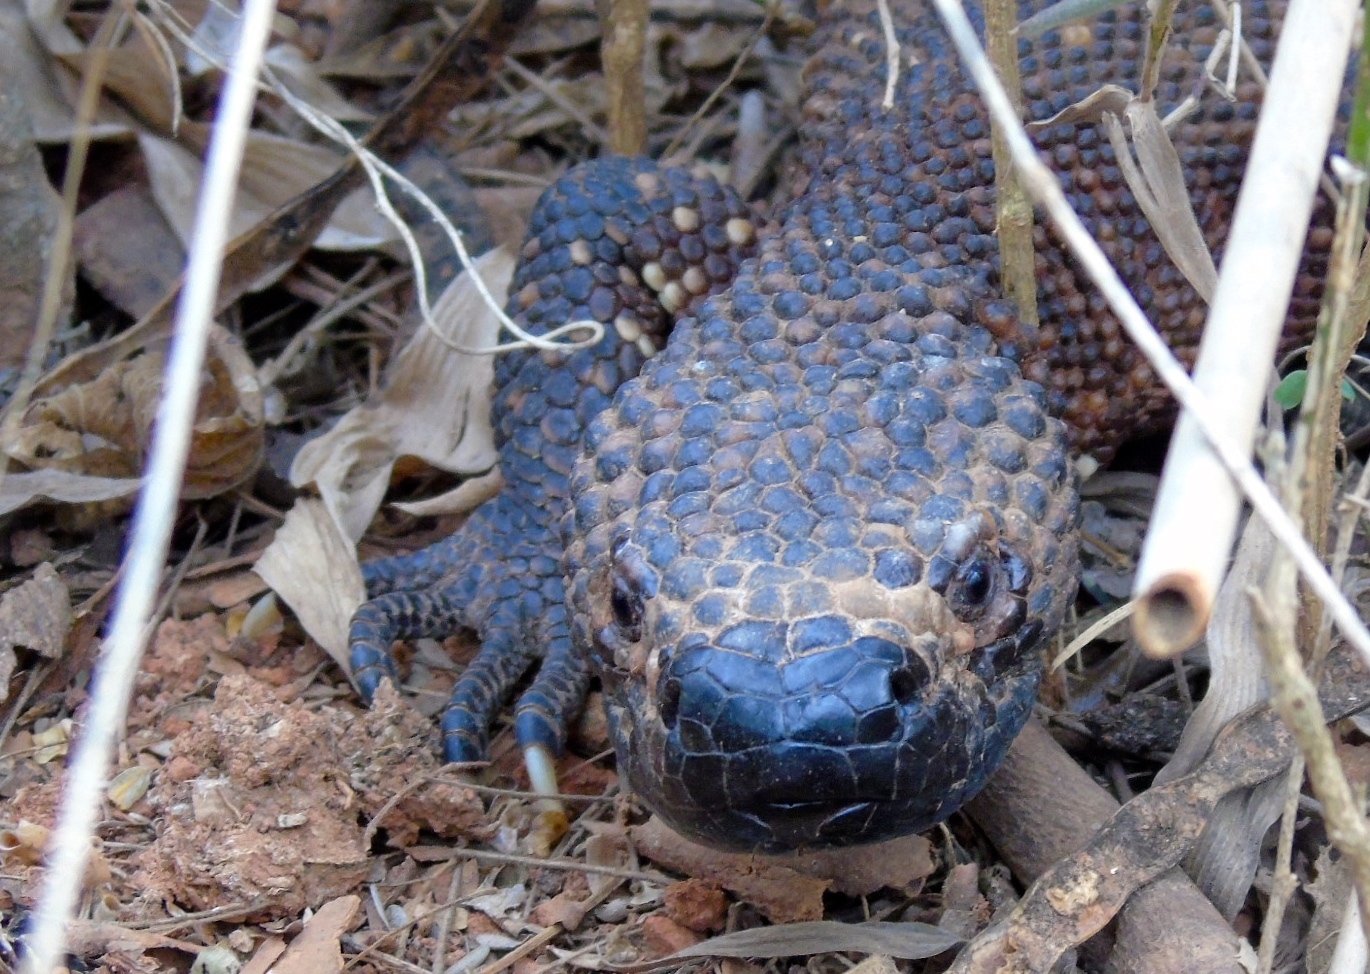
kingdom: Animalia
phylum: Chordata
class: Squamata
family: Helodermatidae
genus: Heloderma
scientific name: Heloderma horridum
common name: Mexican beaded lizard
